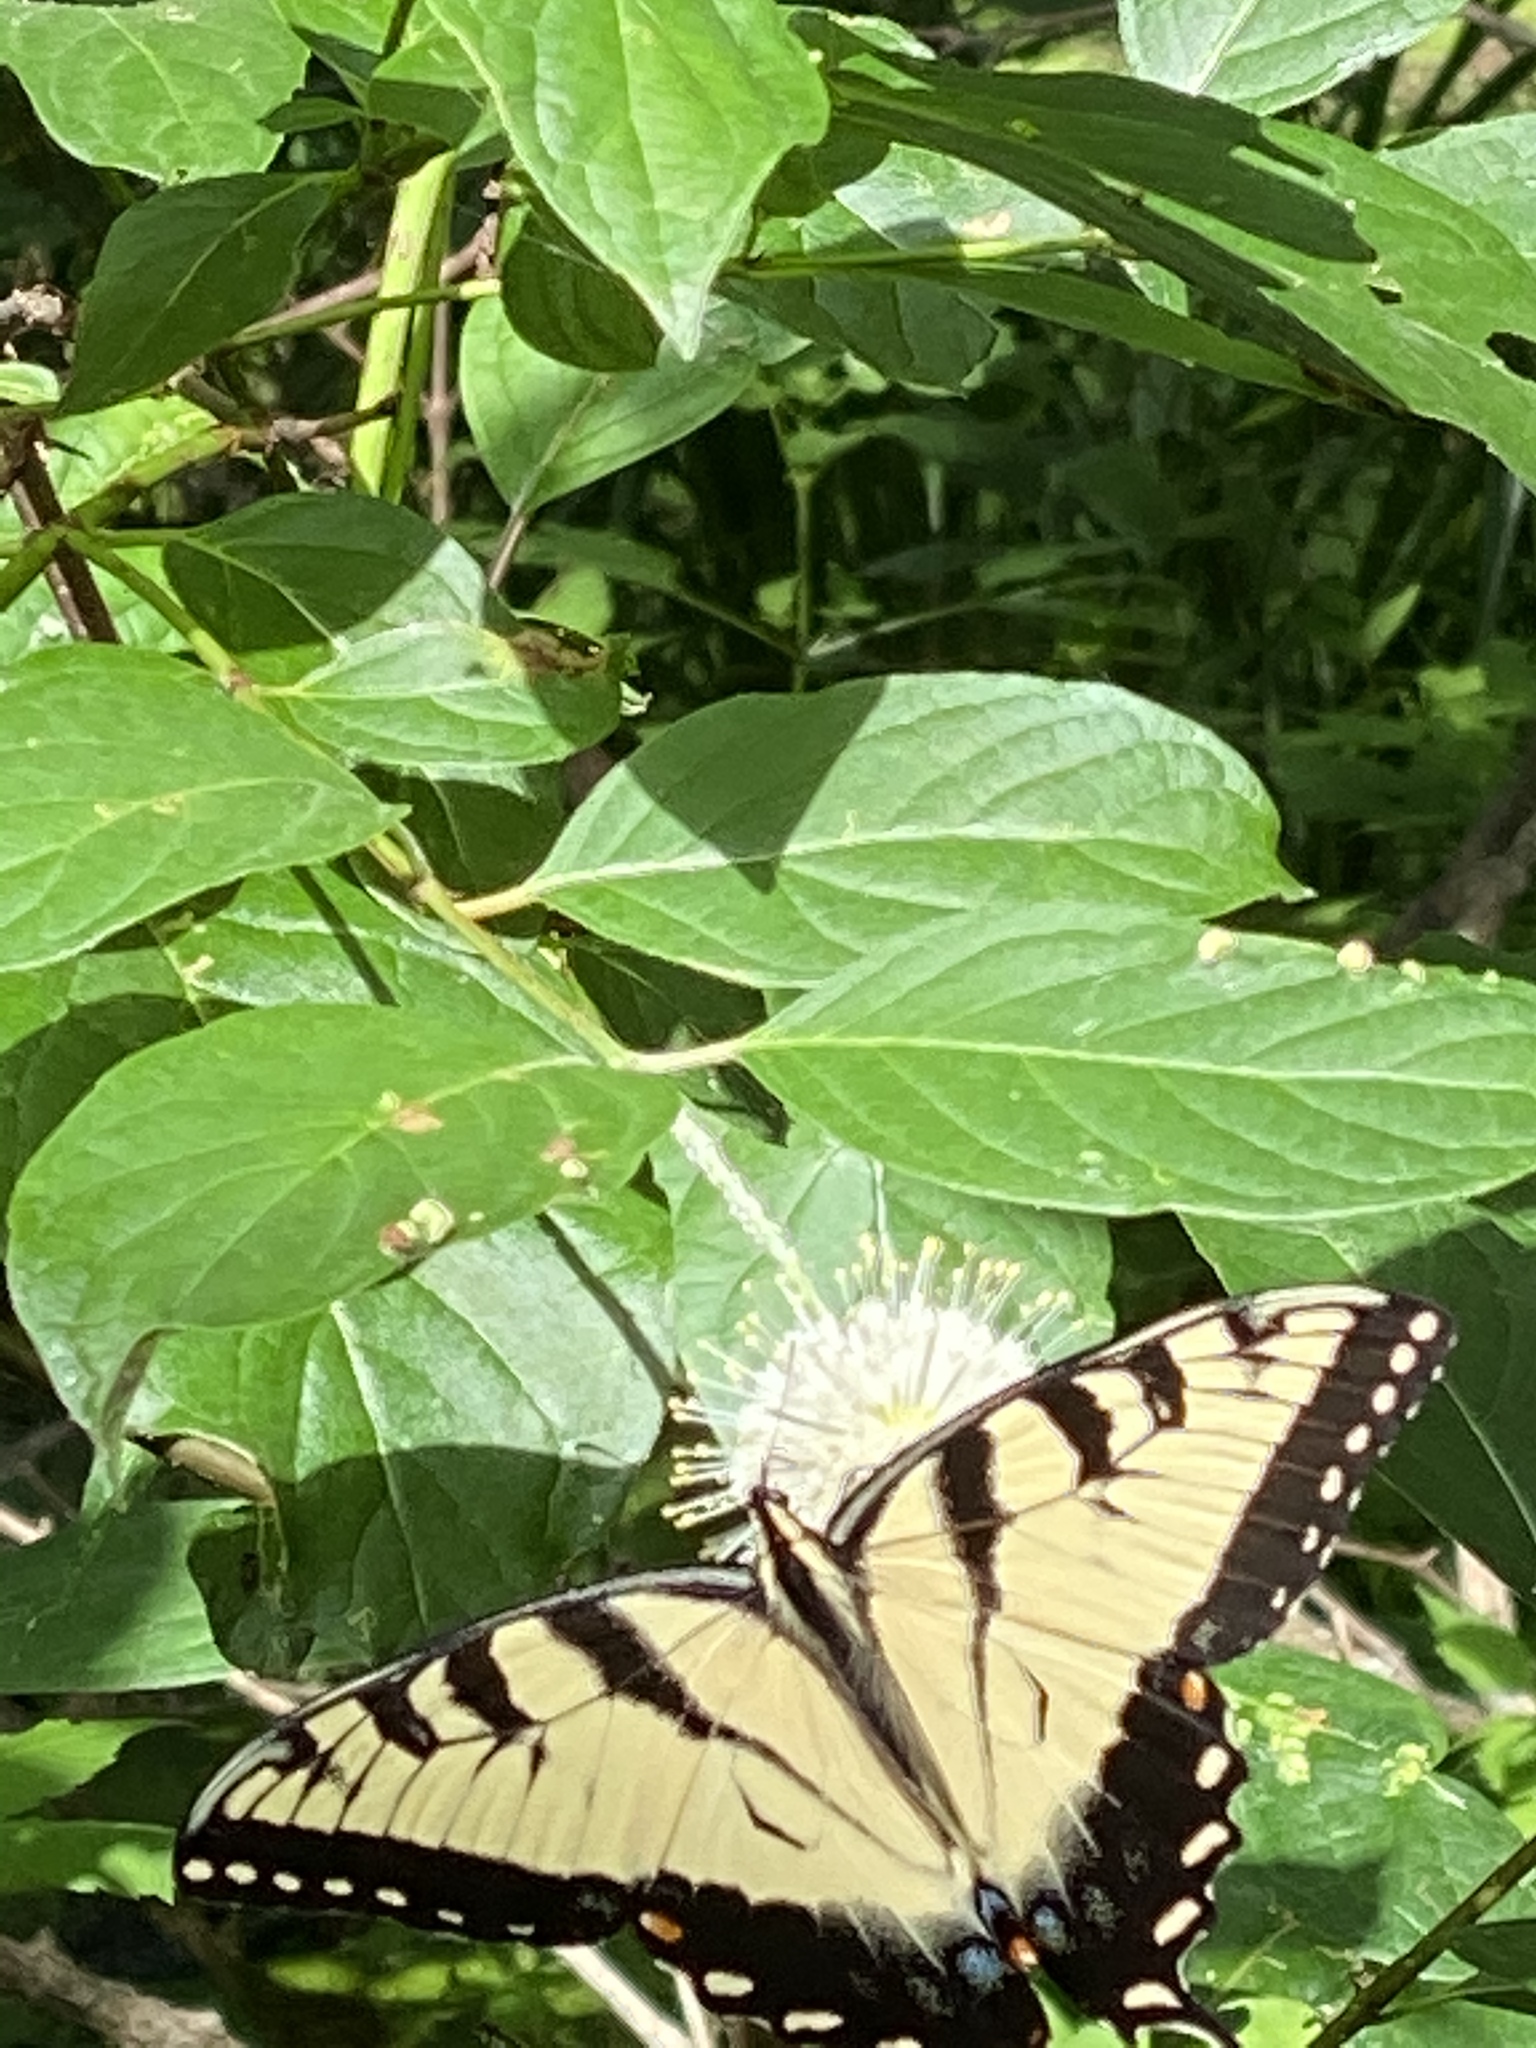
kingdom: Animalia
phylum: Arthropoda
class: Insecta
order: Lepidoptera
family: Papilionidae
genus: Papilio
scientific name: Papilio glaucus
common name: Tiger swallowtail
